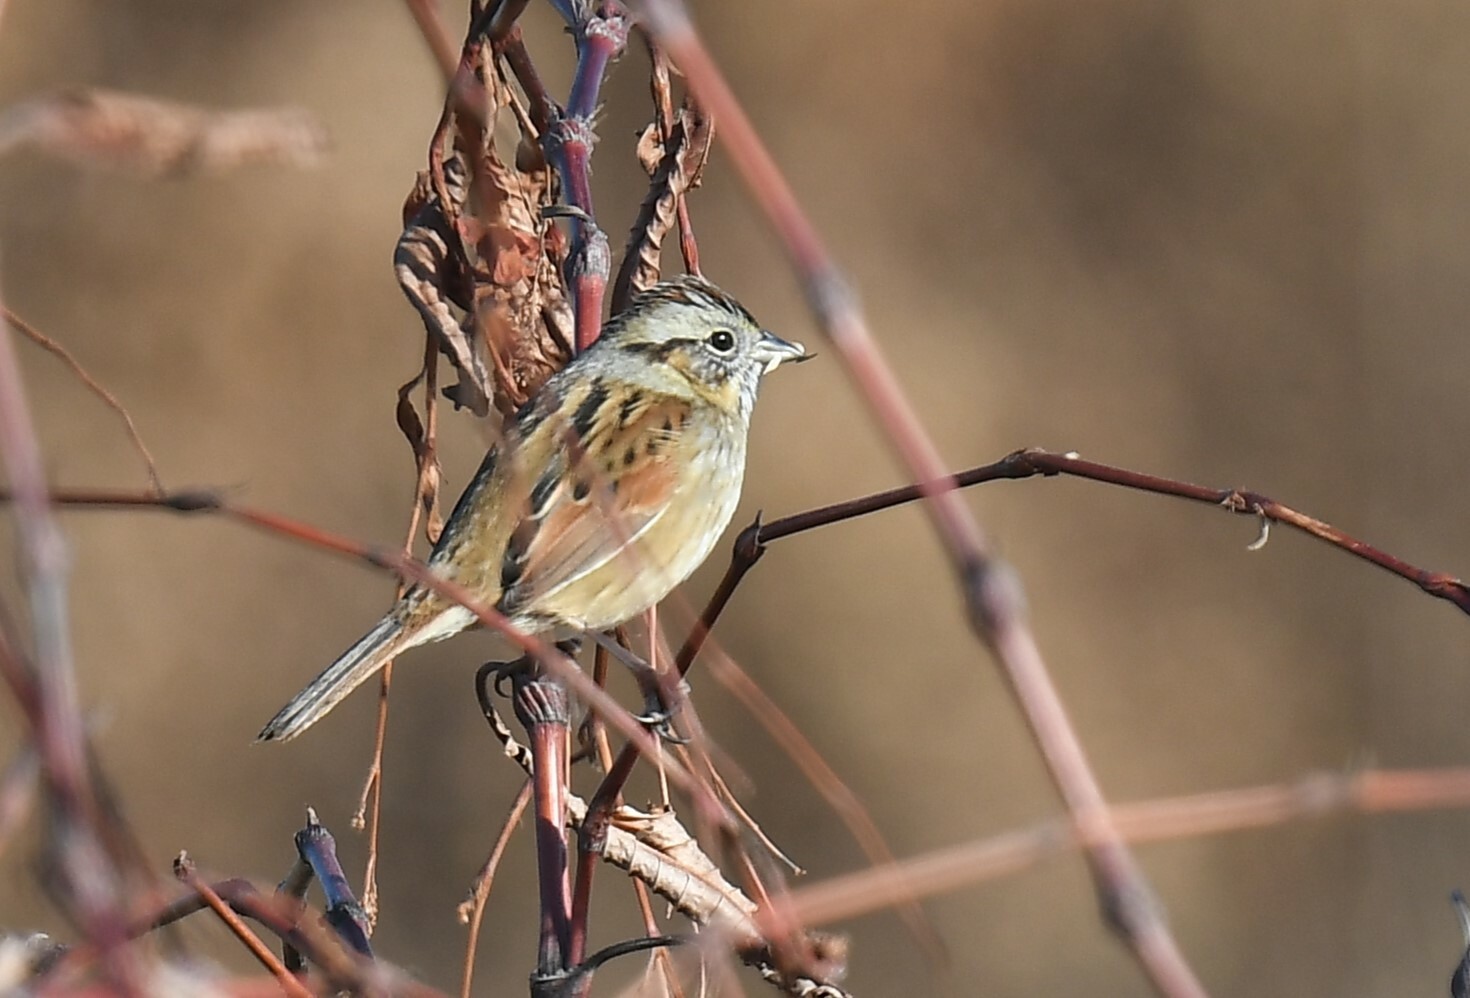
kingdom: Animalia
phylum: Chordata
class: Aves
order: Passeriformes
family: Passerellidae
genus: Melospiza
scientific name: Melospiza georgiana
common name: Swamp sparrow
